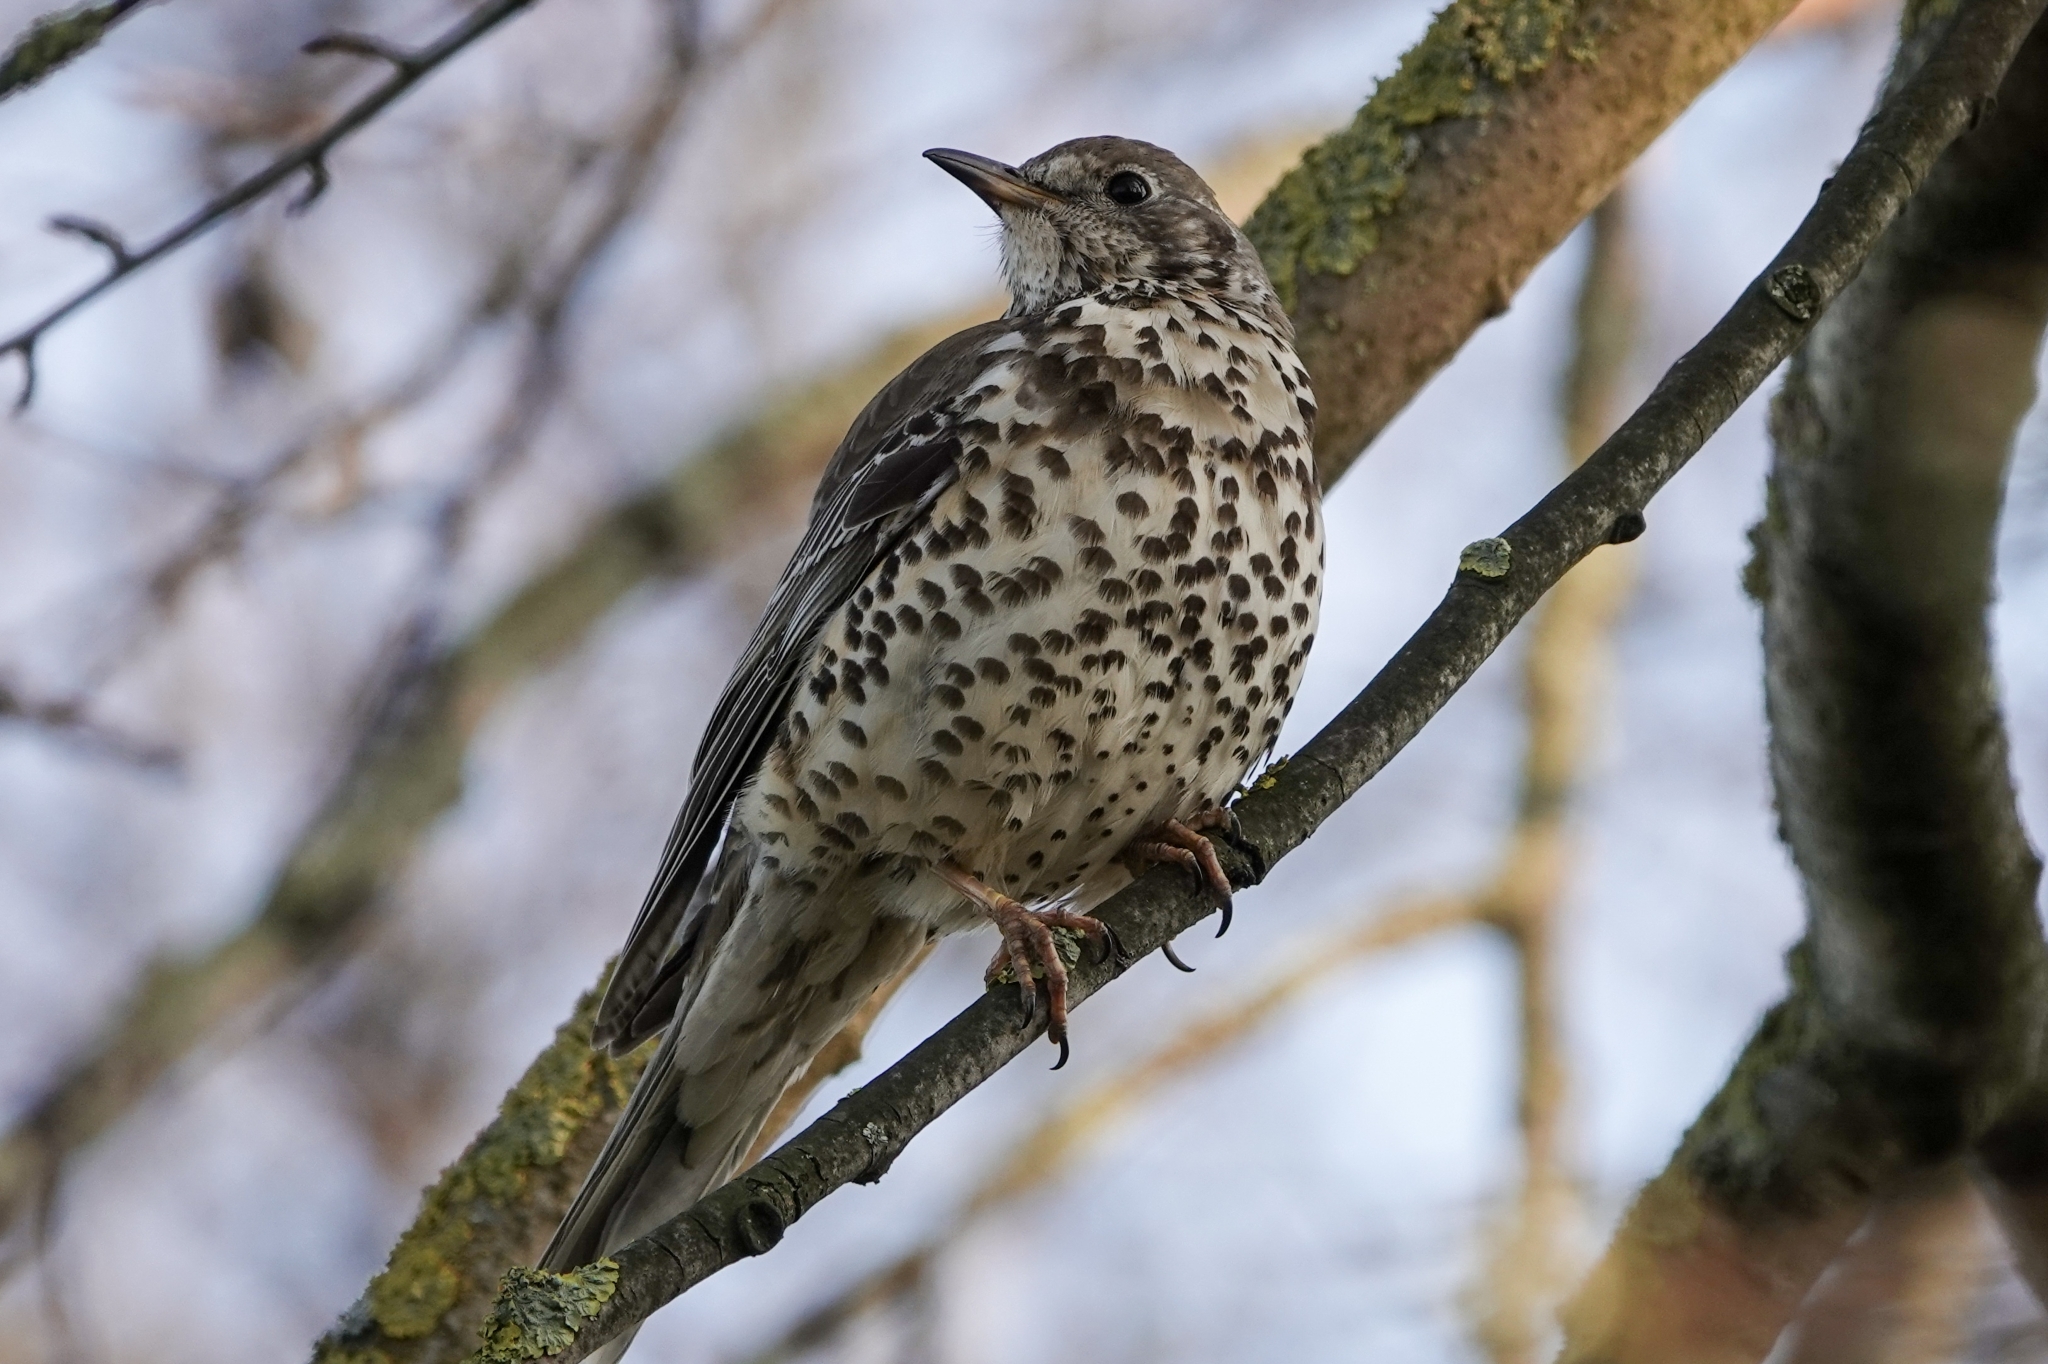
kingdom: Animalia
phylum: Chordata
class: Aves
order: Passeriformes
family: Turdidae
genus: Turdus
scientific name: Turdus viscivorus
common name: Mistle thrush
